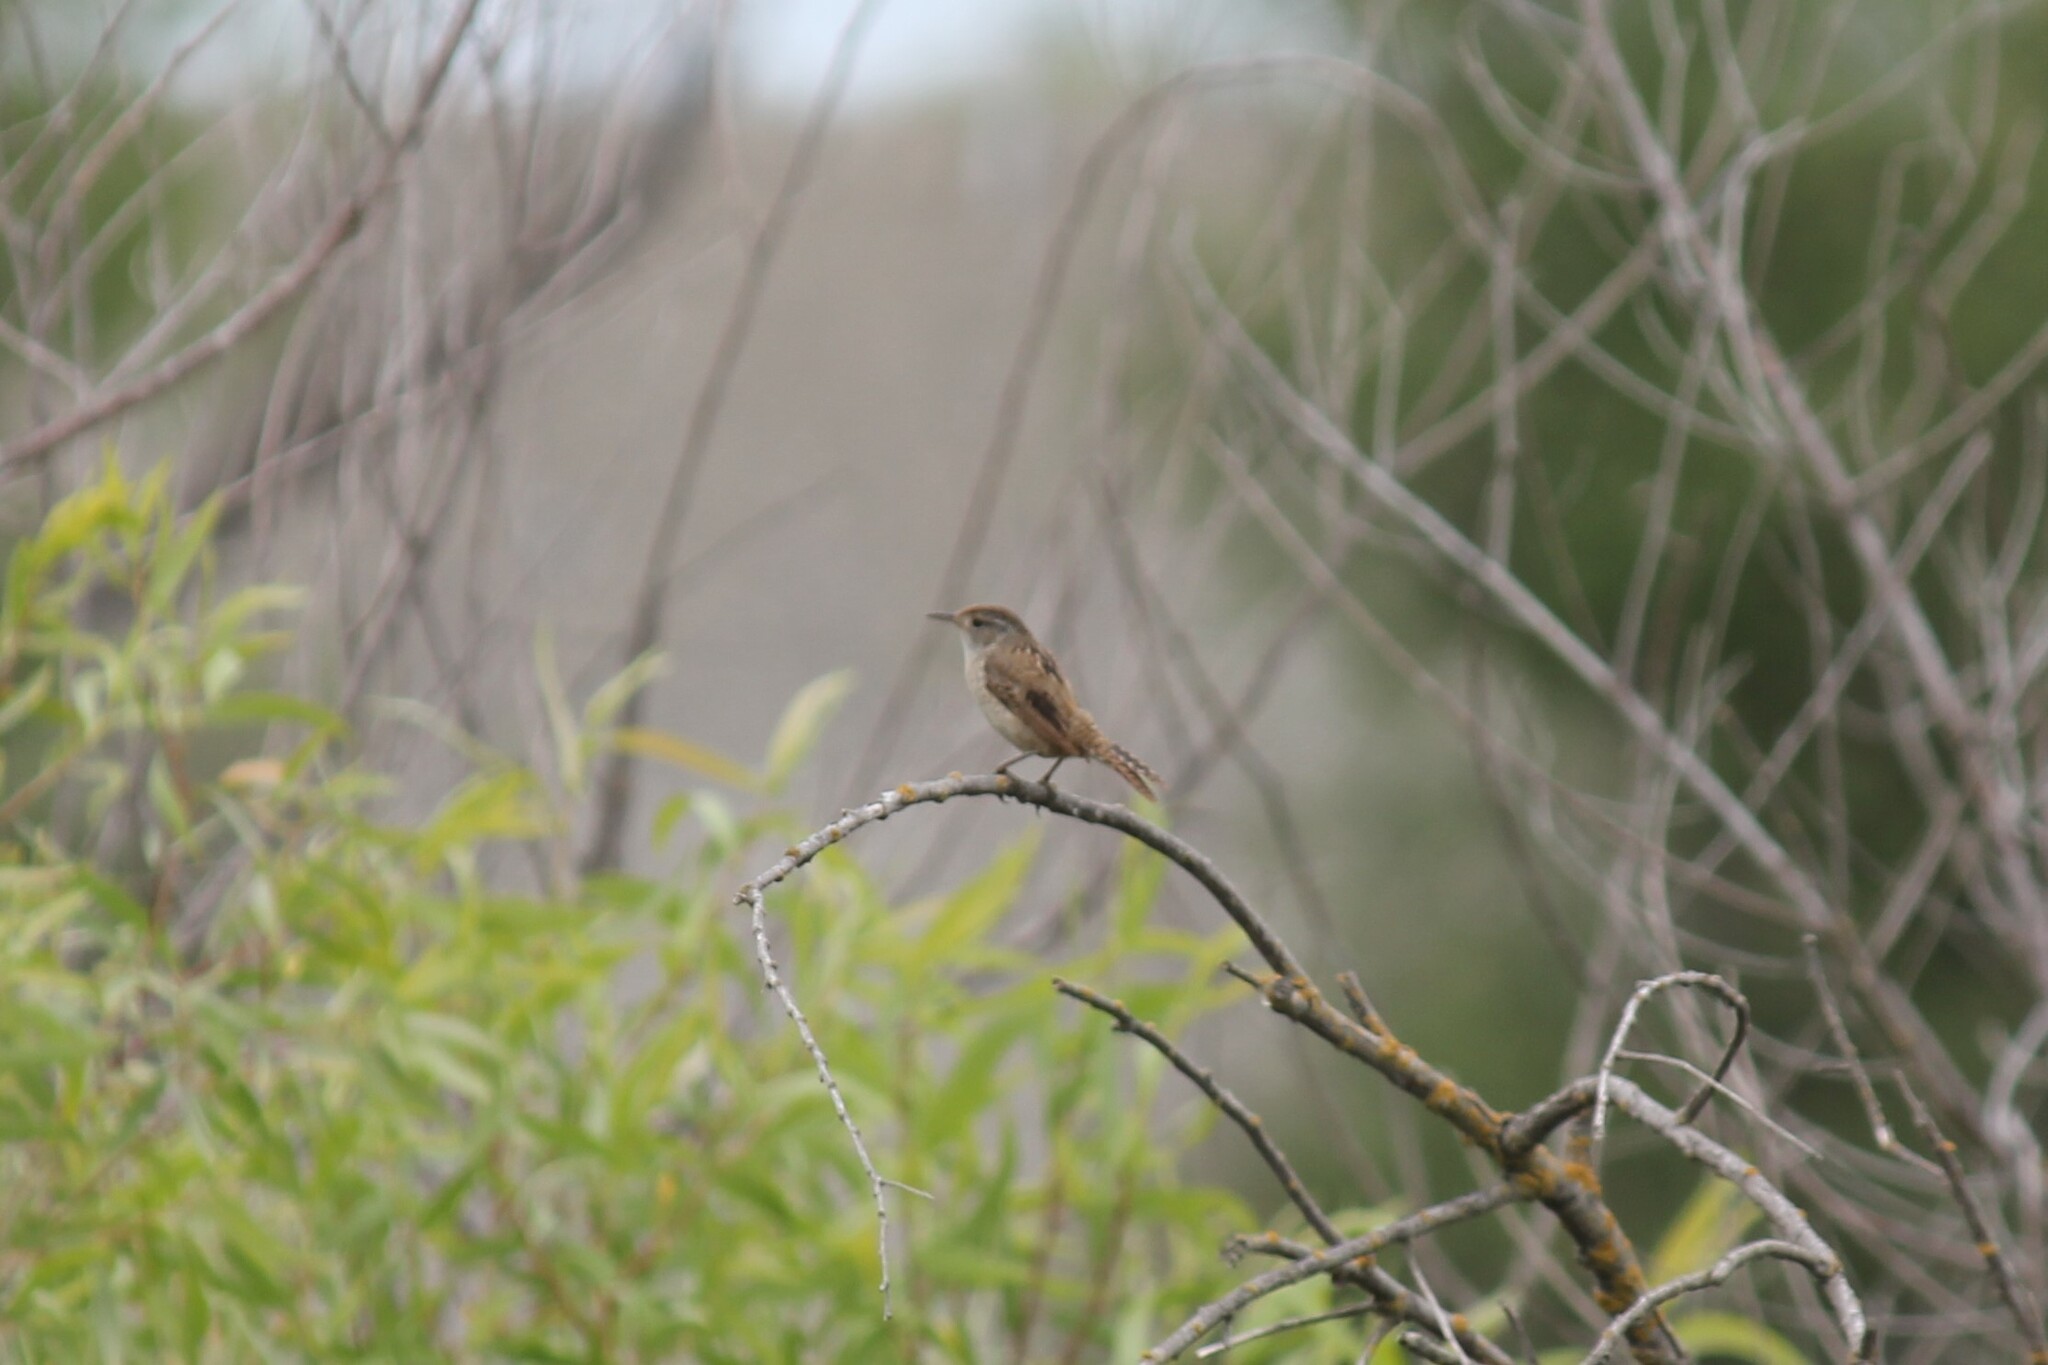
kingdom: Animalia
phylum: Chordata
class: Aves
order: Passeriformes
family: Troglodytidae
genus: Cistothorus
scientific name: Cistothorus palustris
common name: Marsh wren
